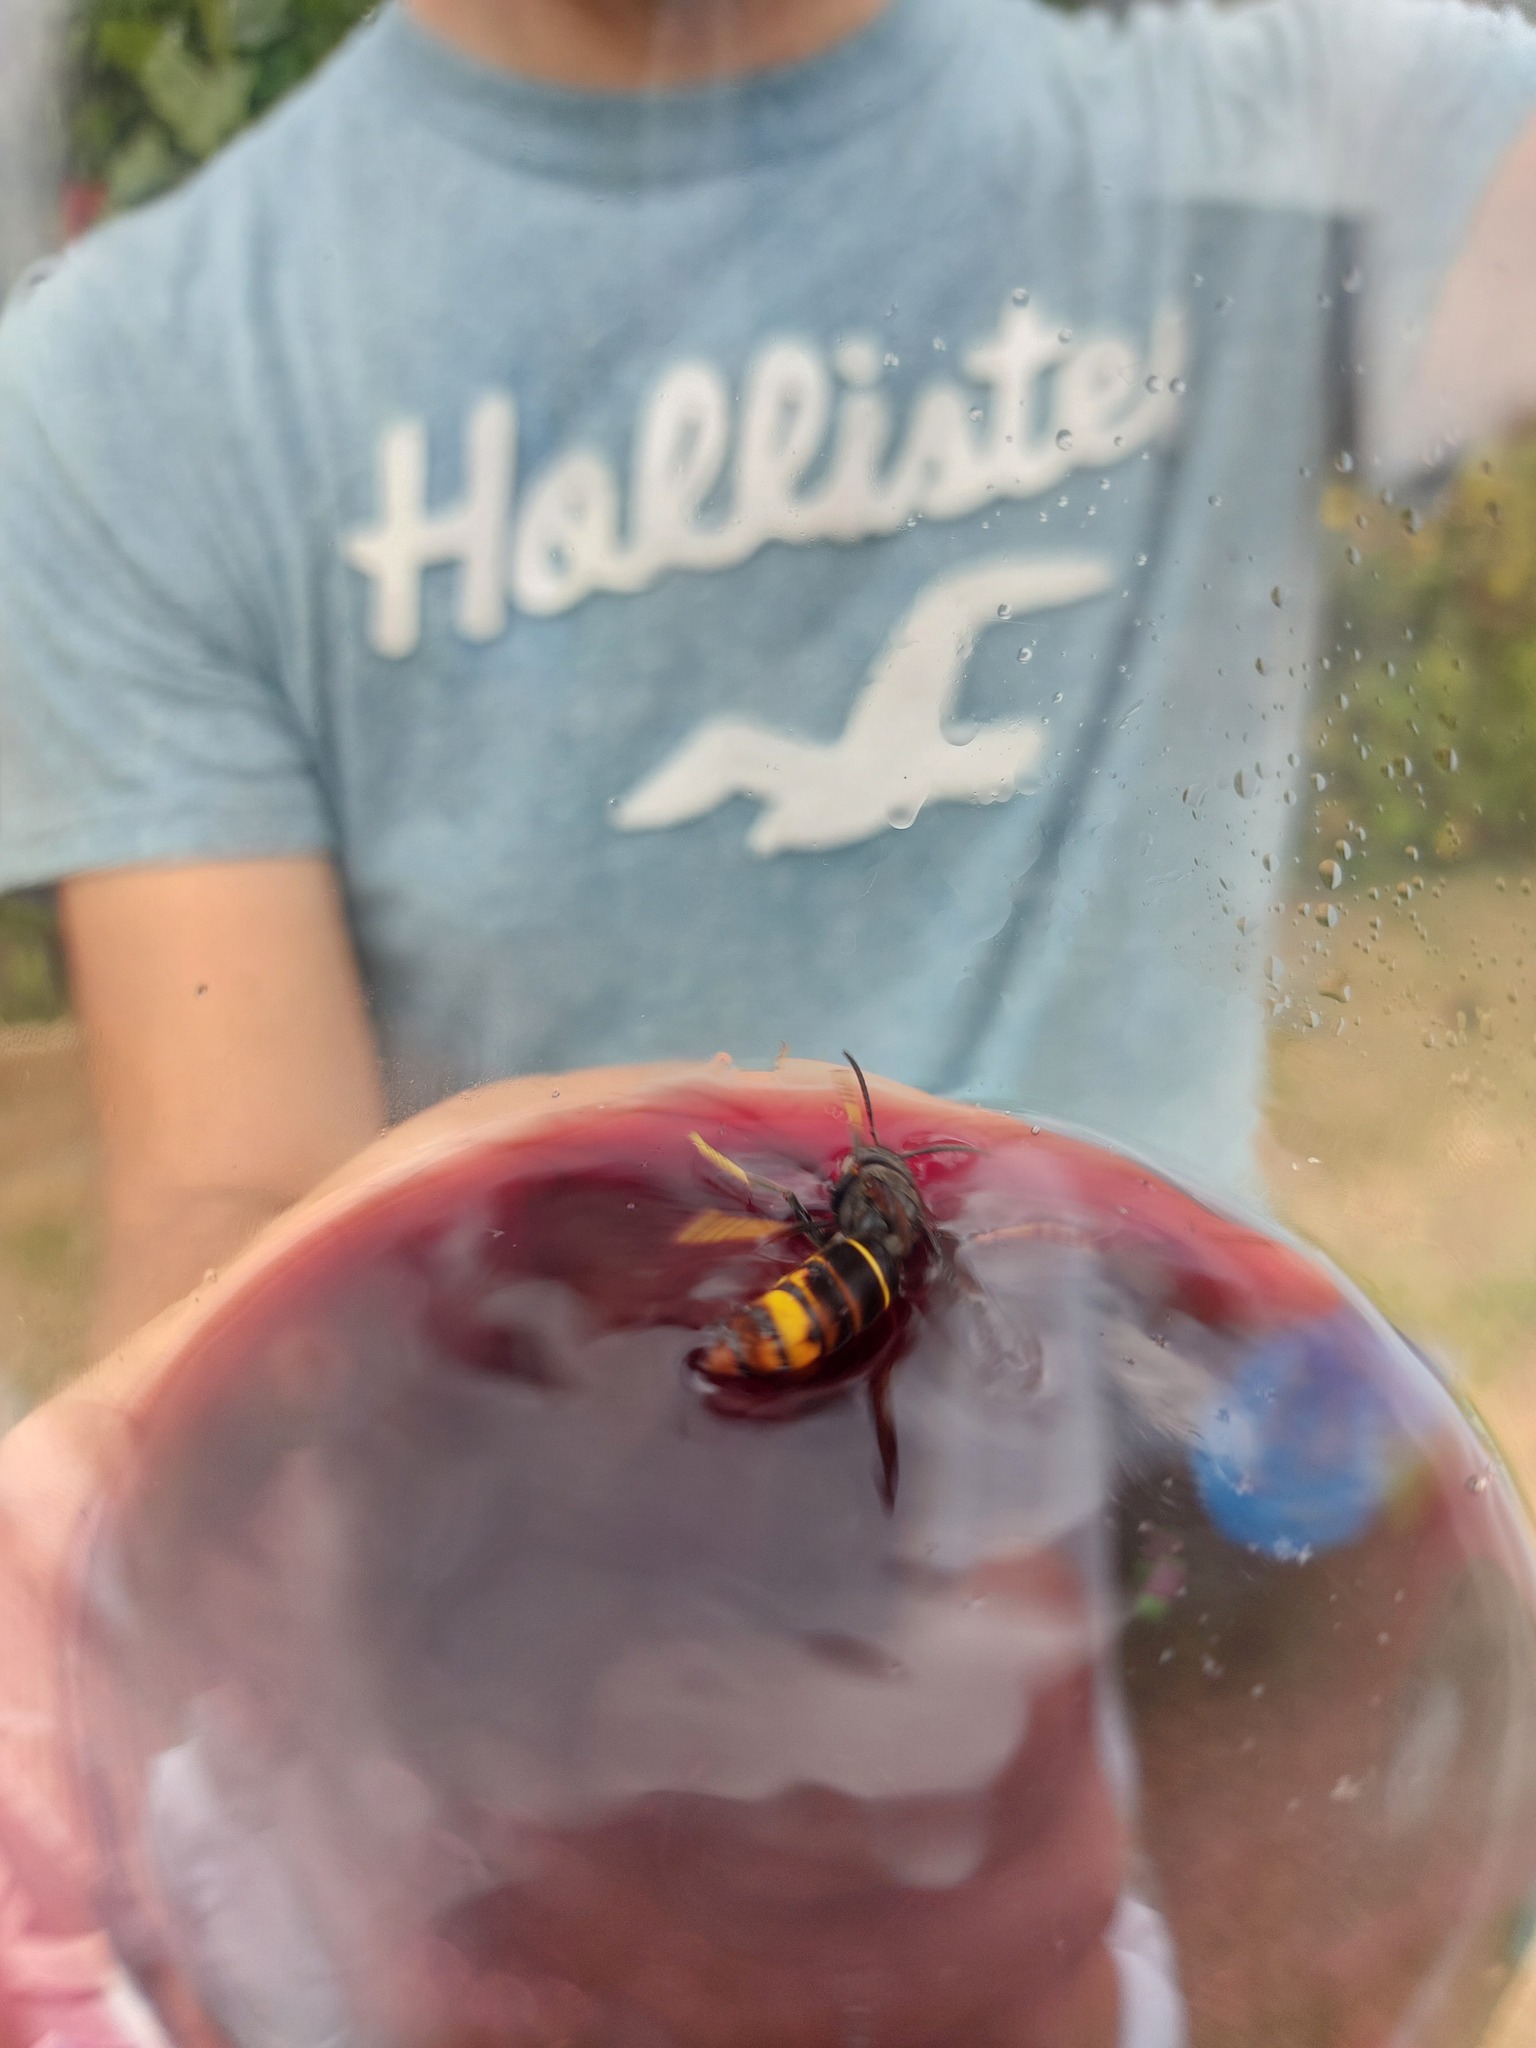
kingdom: Animalia
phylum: Arthropoda
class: Insecta
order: Hymenoptera
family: Vespidae
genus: Vespa
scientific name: Vespa velutina
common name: Asian hornet
